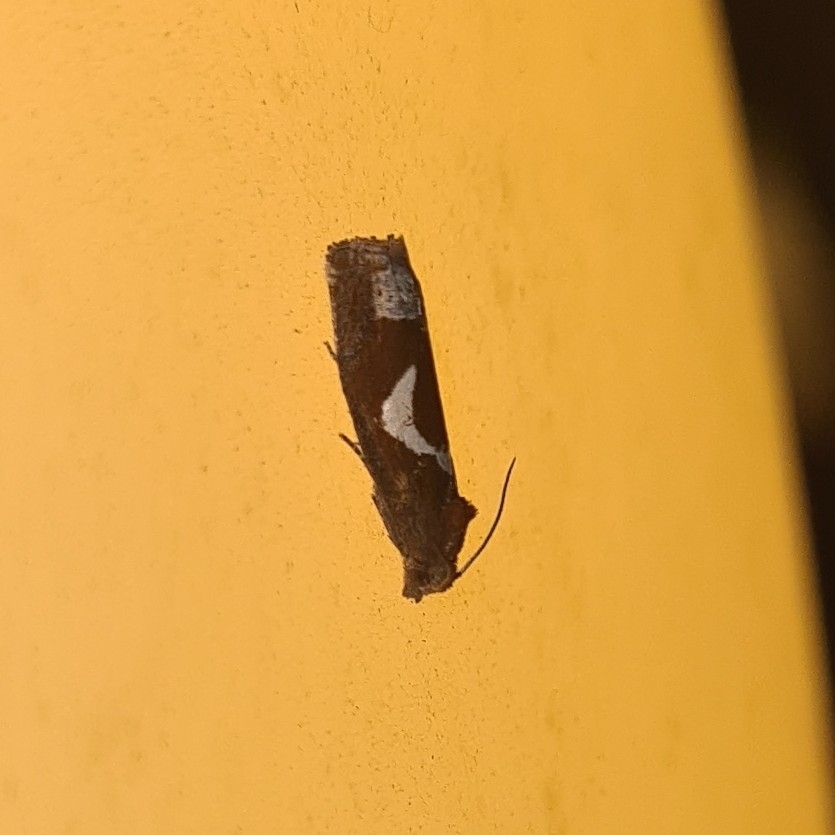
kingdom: Animalia
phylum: Arthropoda
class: Insecta
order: Lepidoptera
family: Tortricidae
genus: Epiblema
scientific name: Epiblema foenella
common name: White-foot bell
